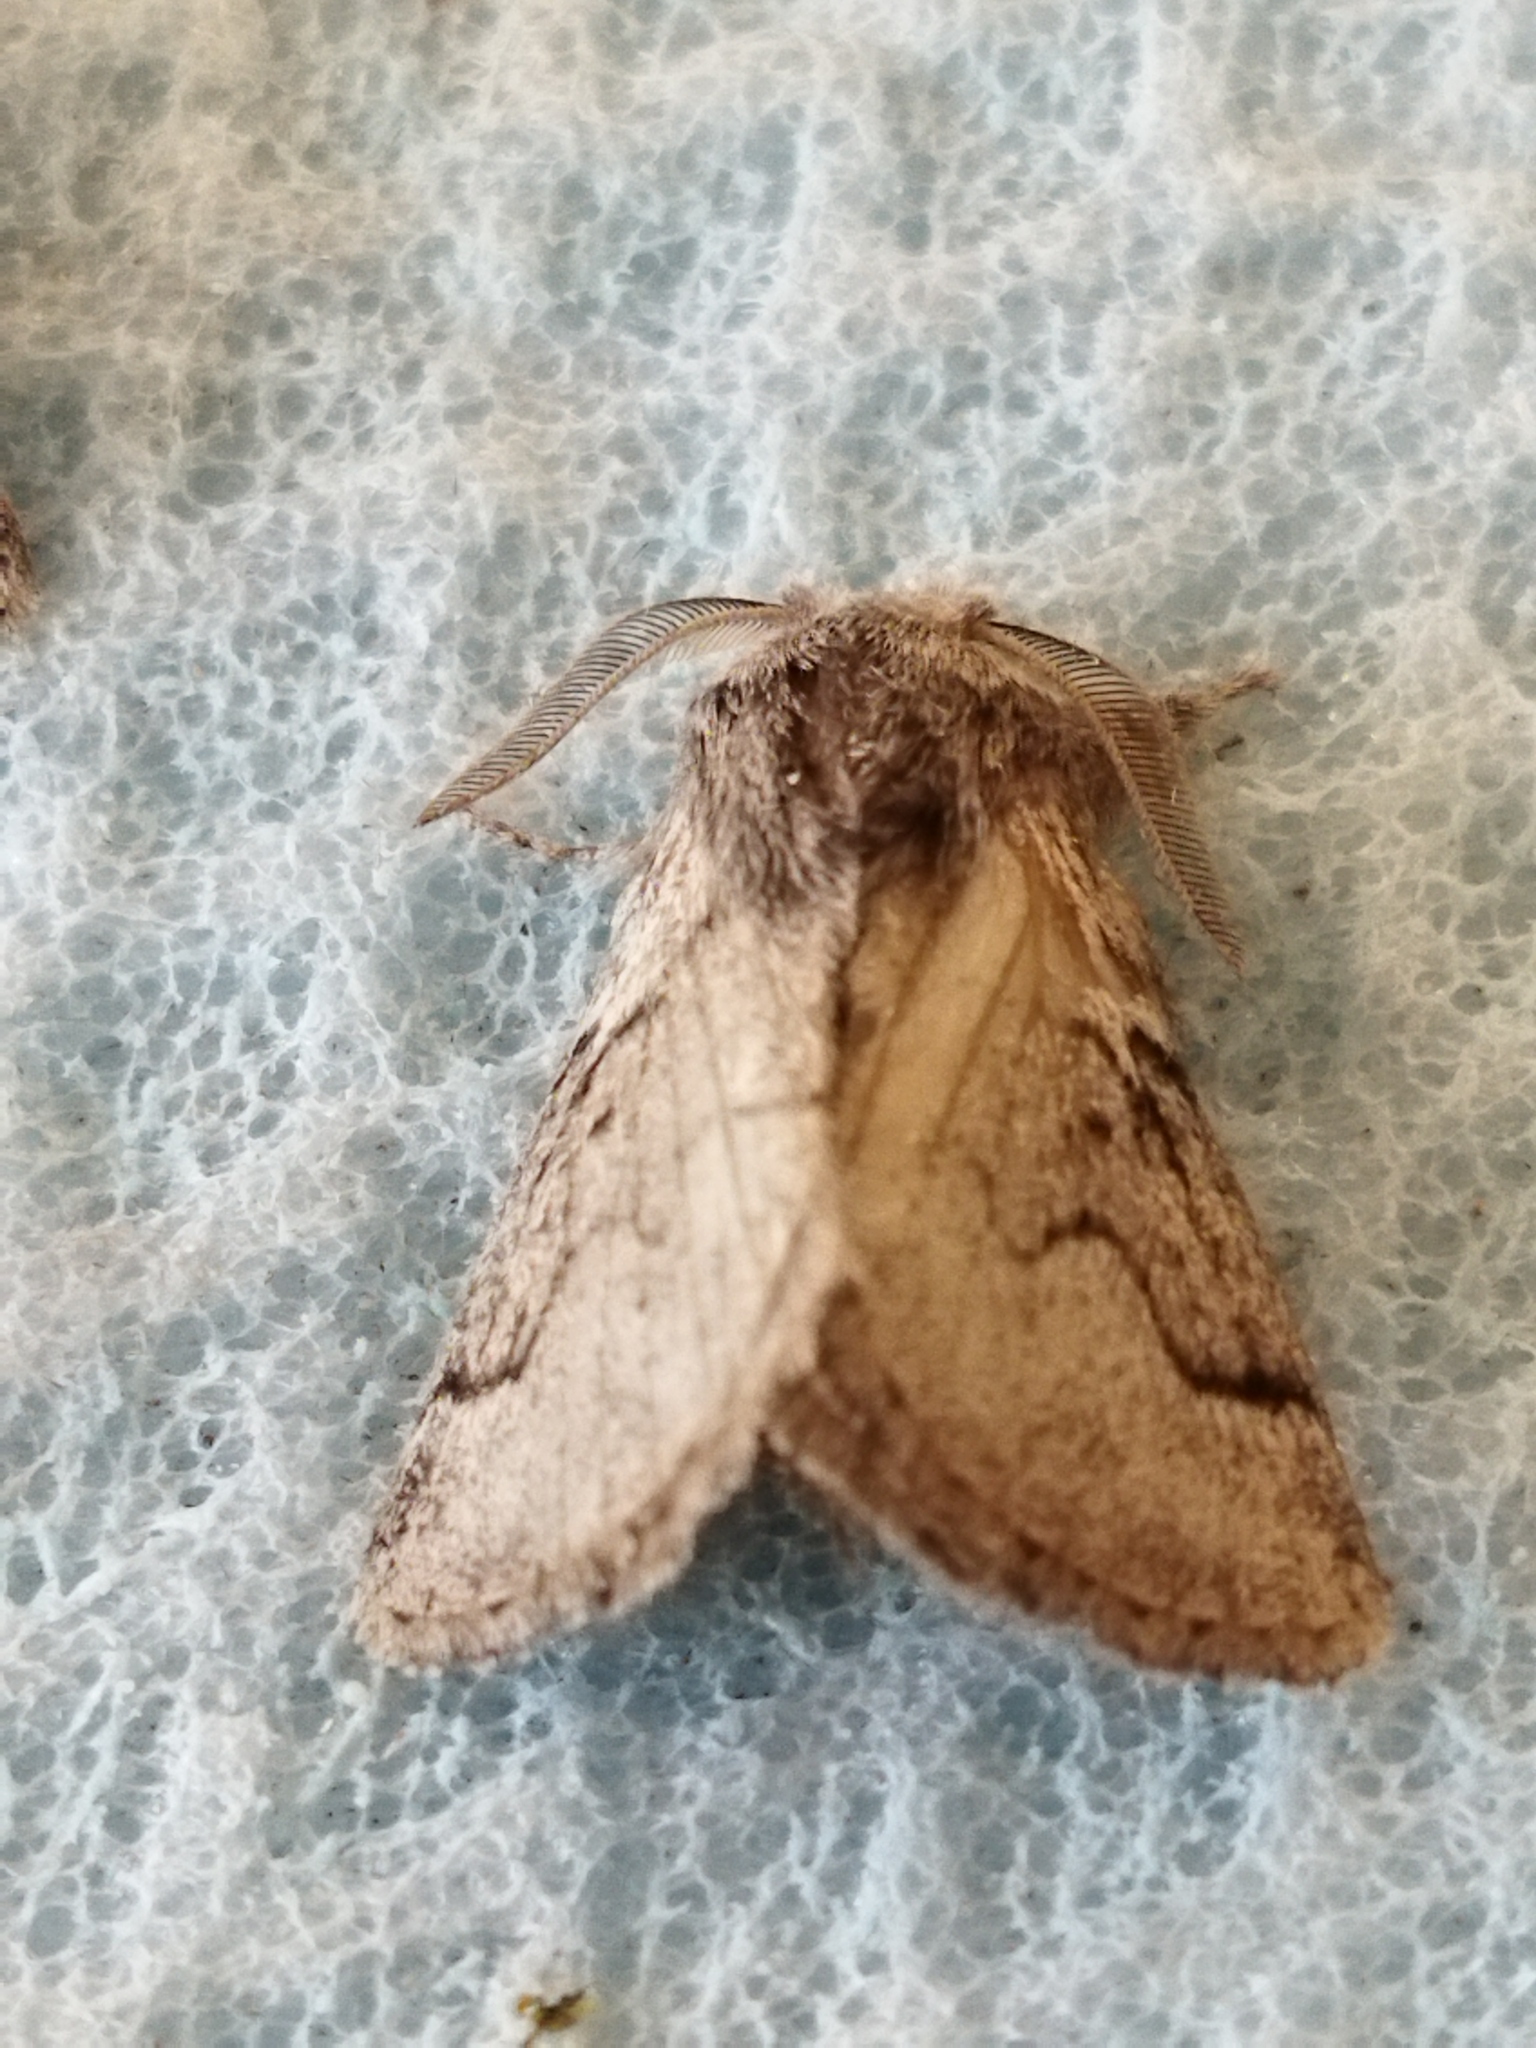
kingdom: Animalia
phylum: Arthropoda
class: Insecta
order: Lepidoptera
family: Lasiocampidae
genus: Trichiura
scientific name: Trichiura crataegi
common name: Pale eggar
